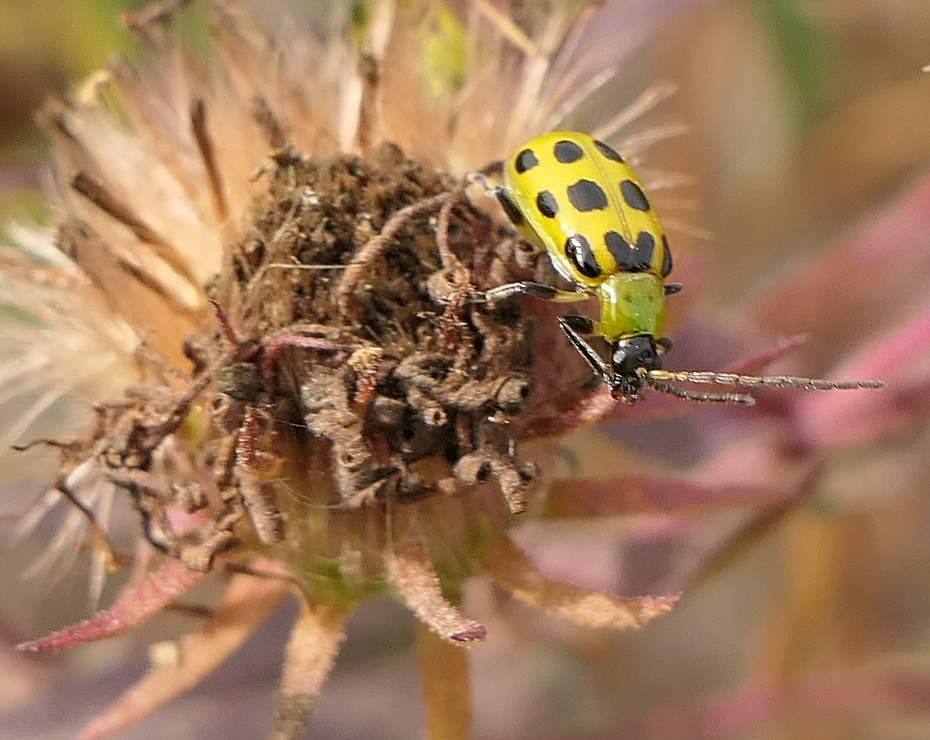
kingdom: Animalia
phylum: Arthropoda
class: Insecta
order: Coleoptera
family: Chrysomelidae
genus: Diabrotica
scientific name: Diabrotica undecimpunctata
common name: Spotted cucumber beetle
